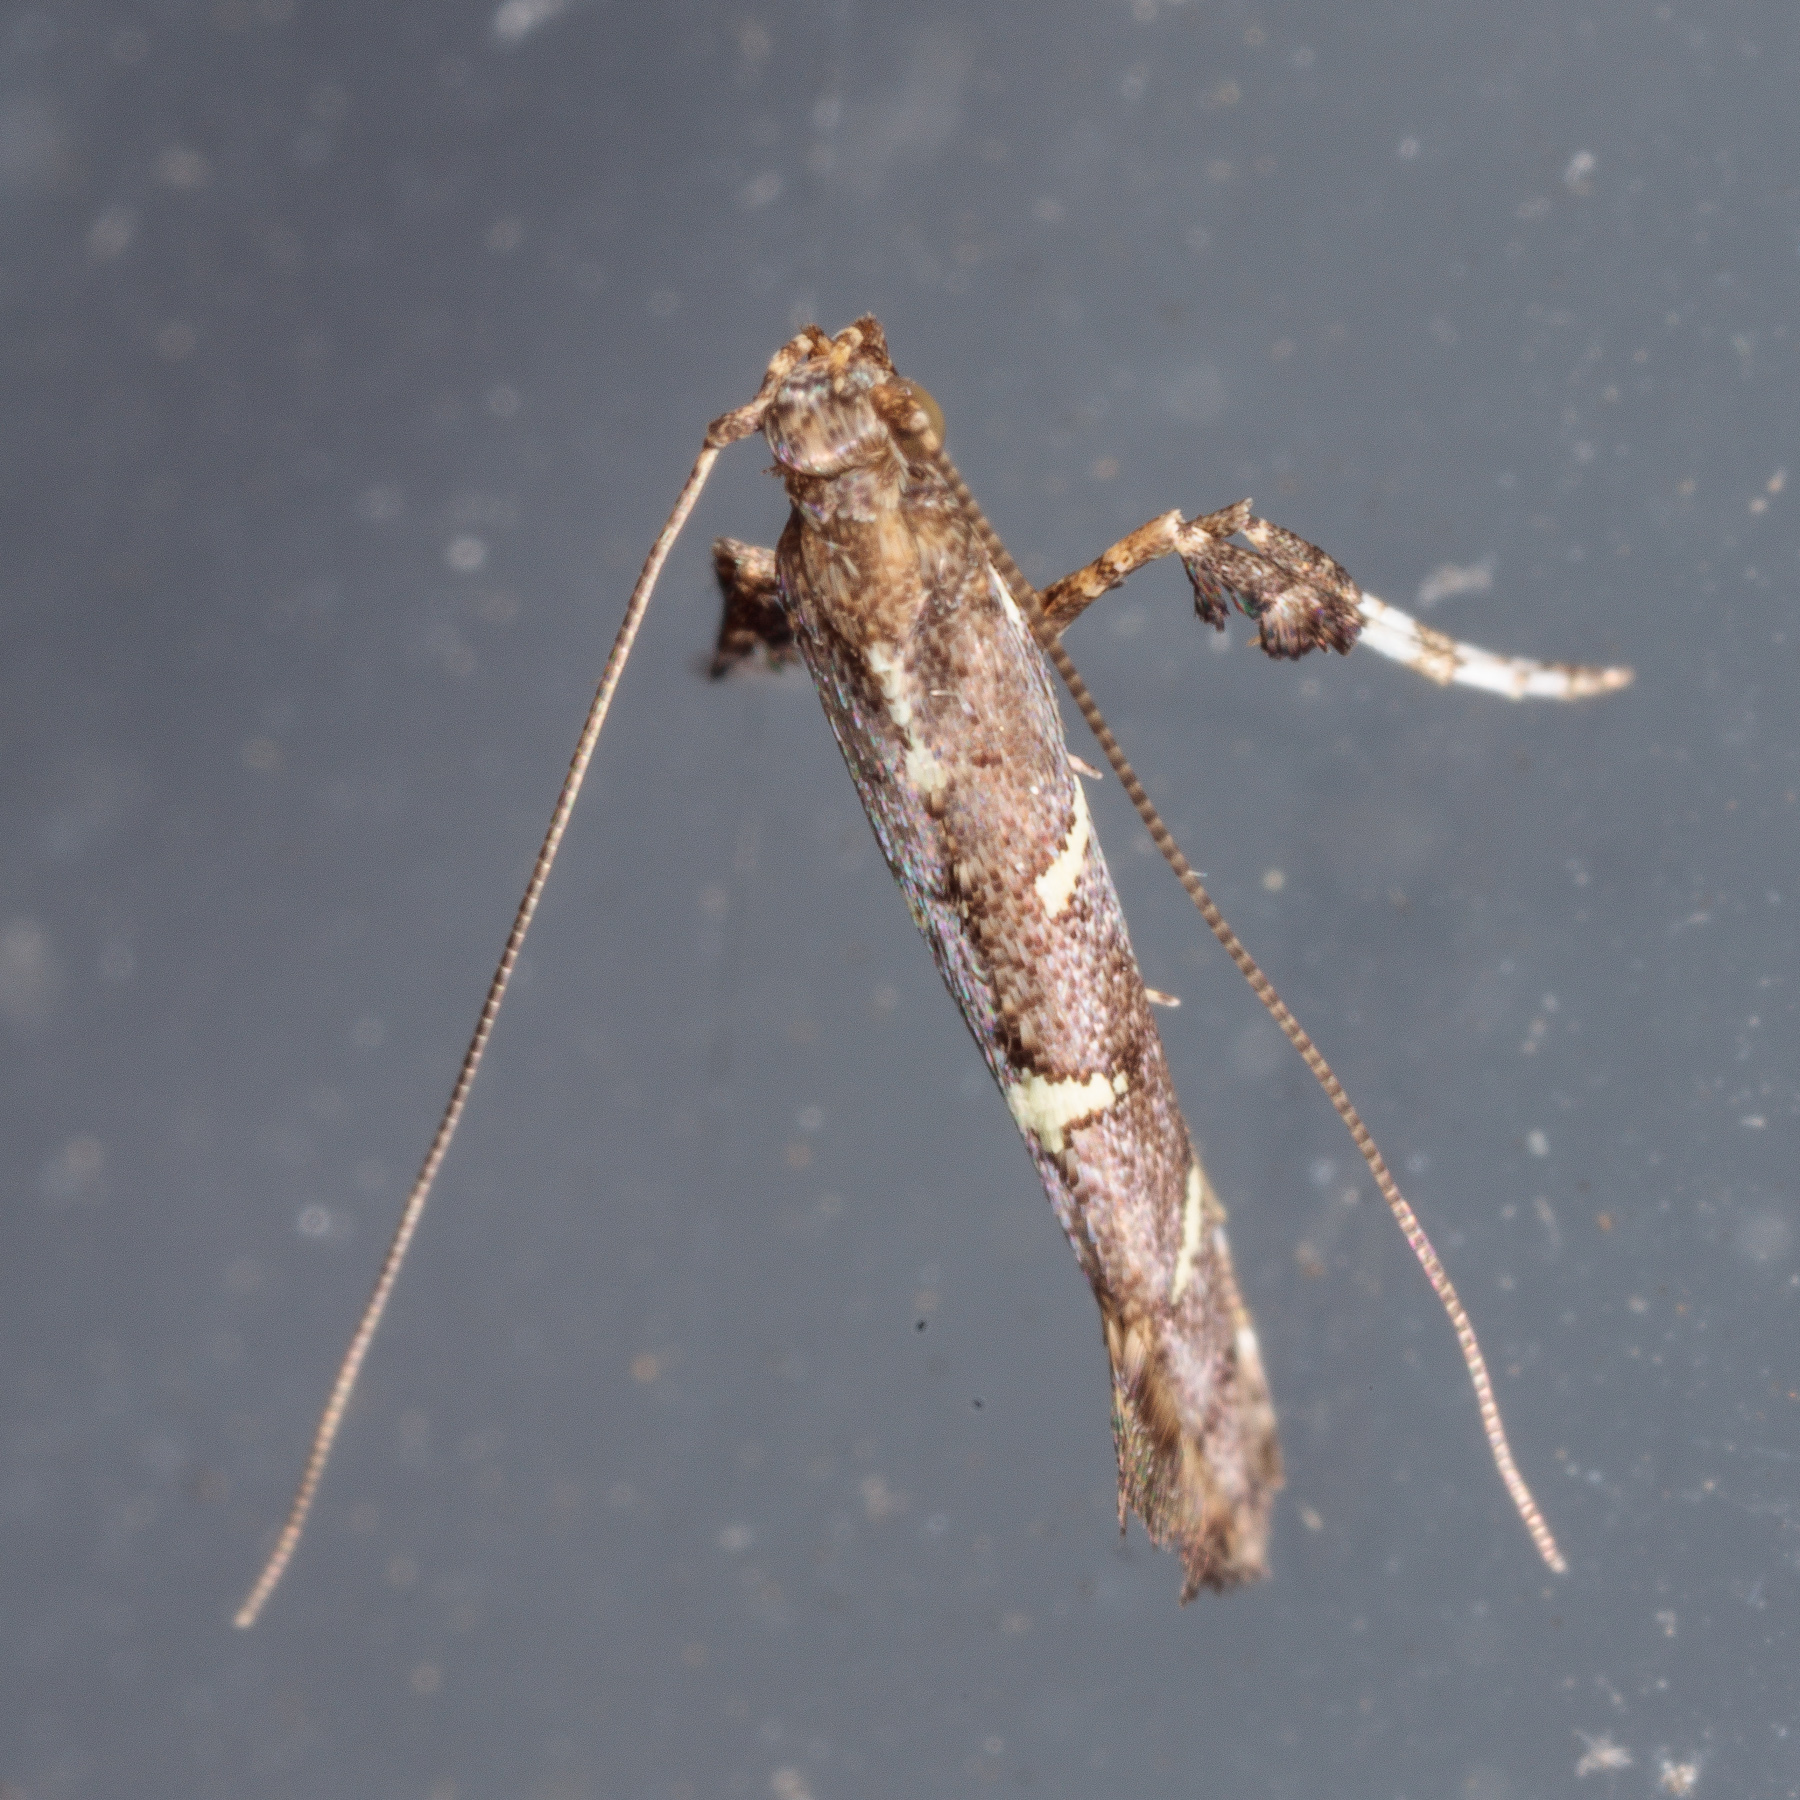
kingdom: Animalia
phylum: Arthropoda
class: Insecta
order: Lepidoptera
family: Gracillariidae
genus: Caloptilia
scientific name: Caloptilia triadicae
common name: Tallow leaf roller
